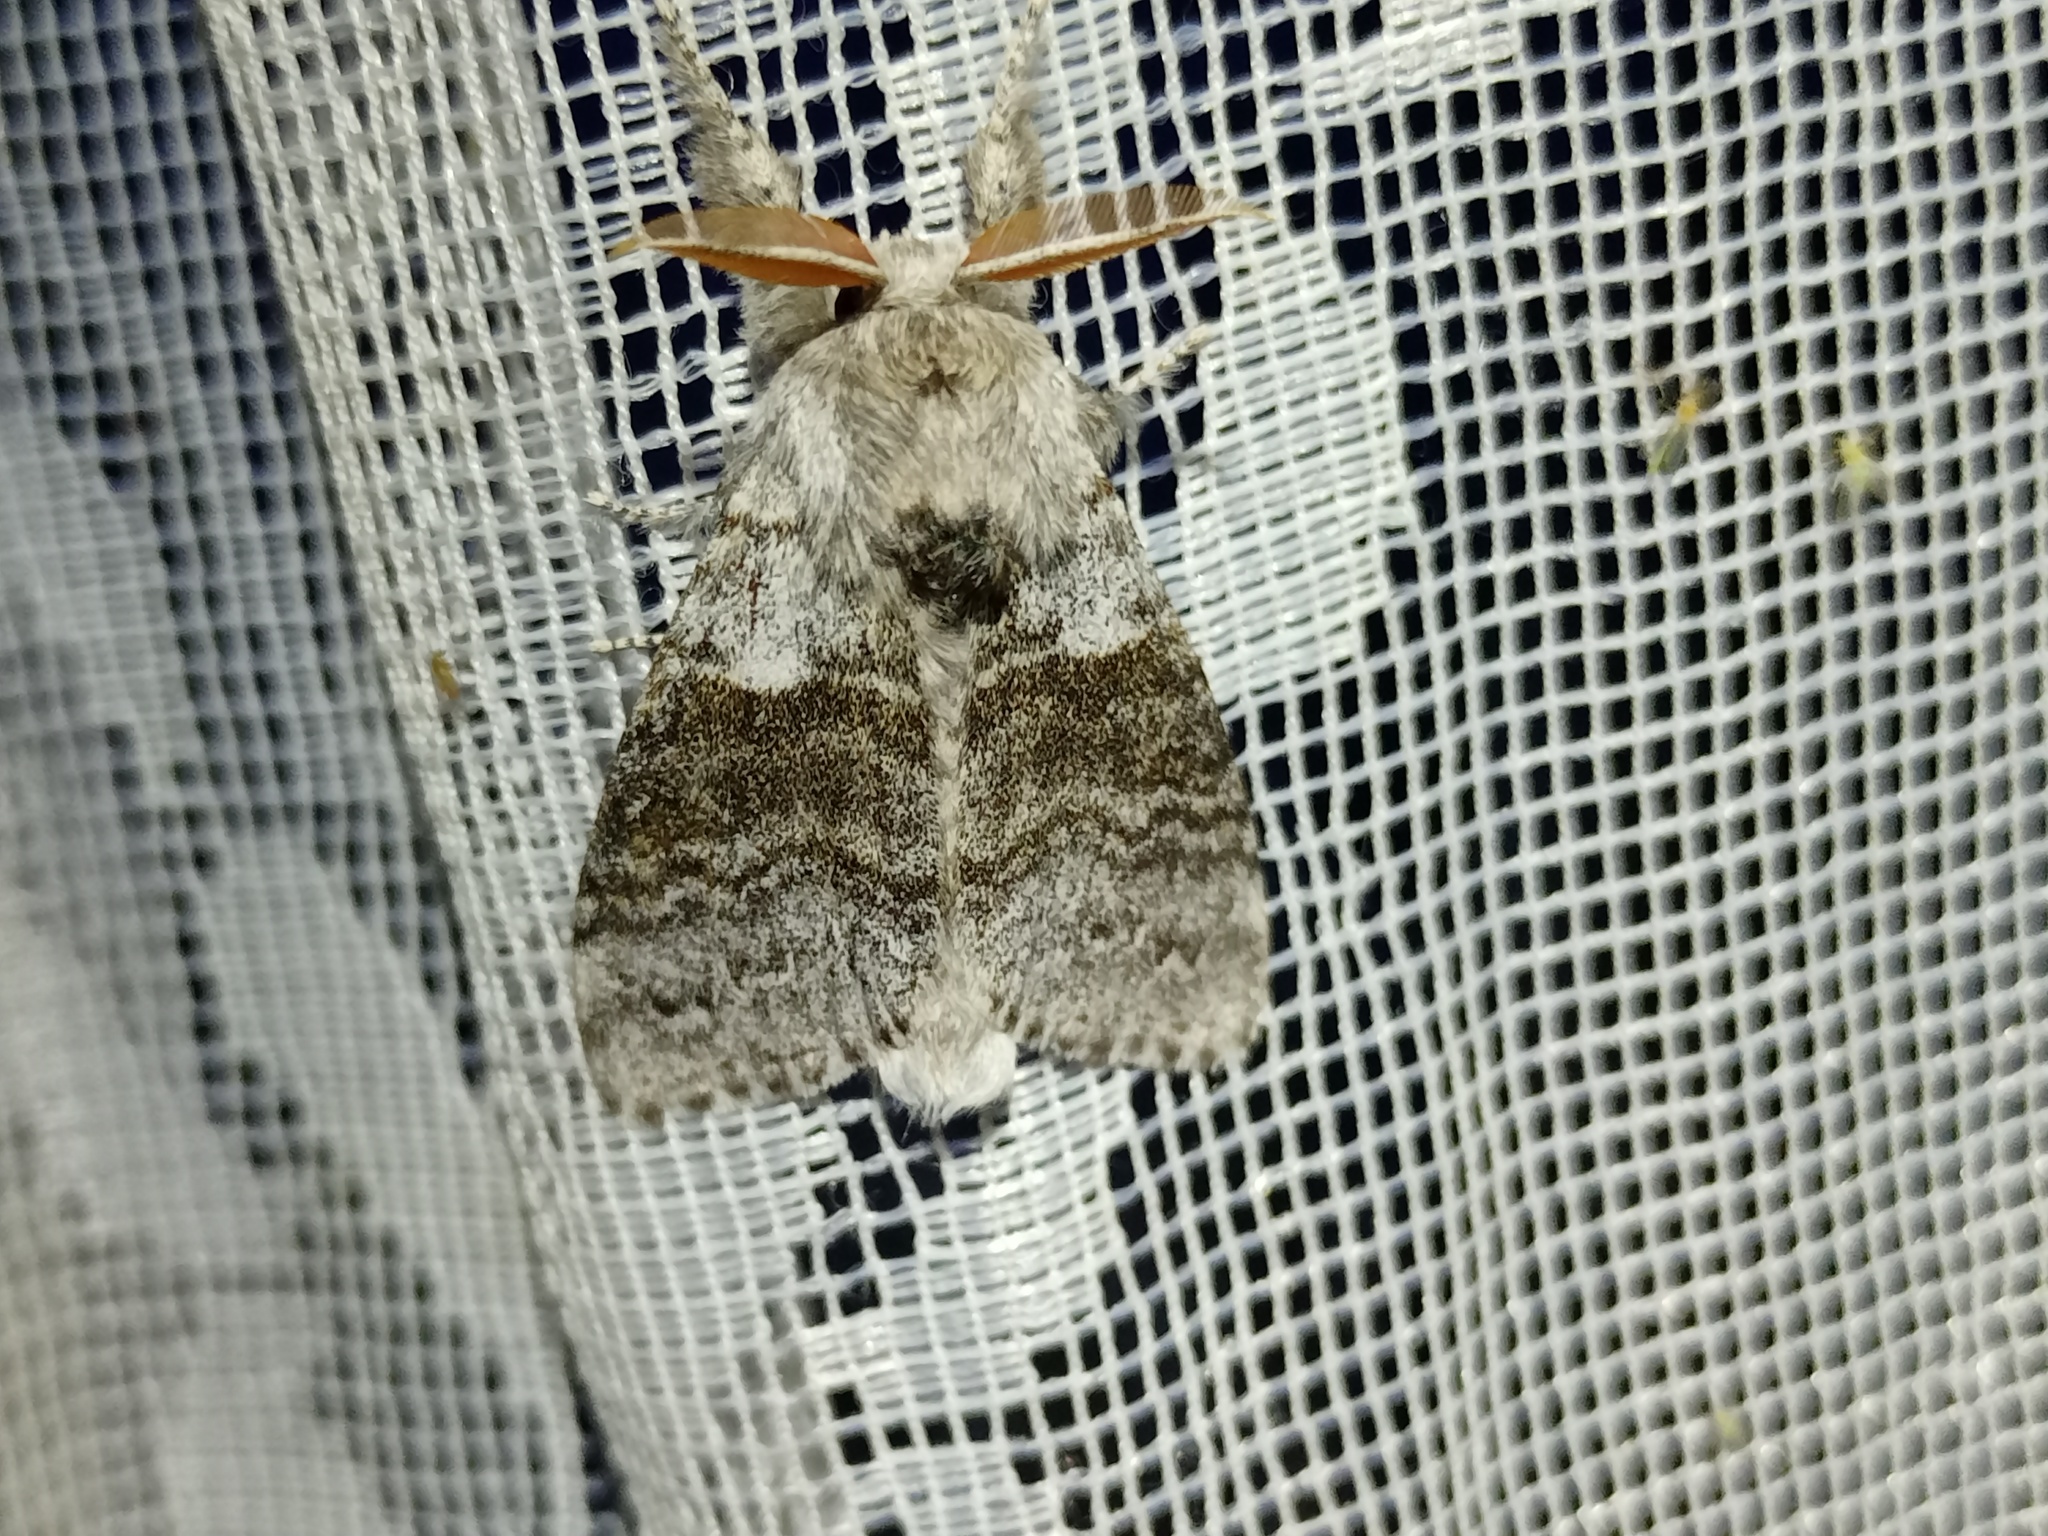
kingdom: Animalia
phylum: Arthropoda
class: Insecta
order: Lepidoptera
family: Erebidae
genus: Calliteara
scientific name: Calliteara pudibunda
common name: Pale tussock
